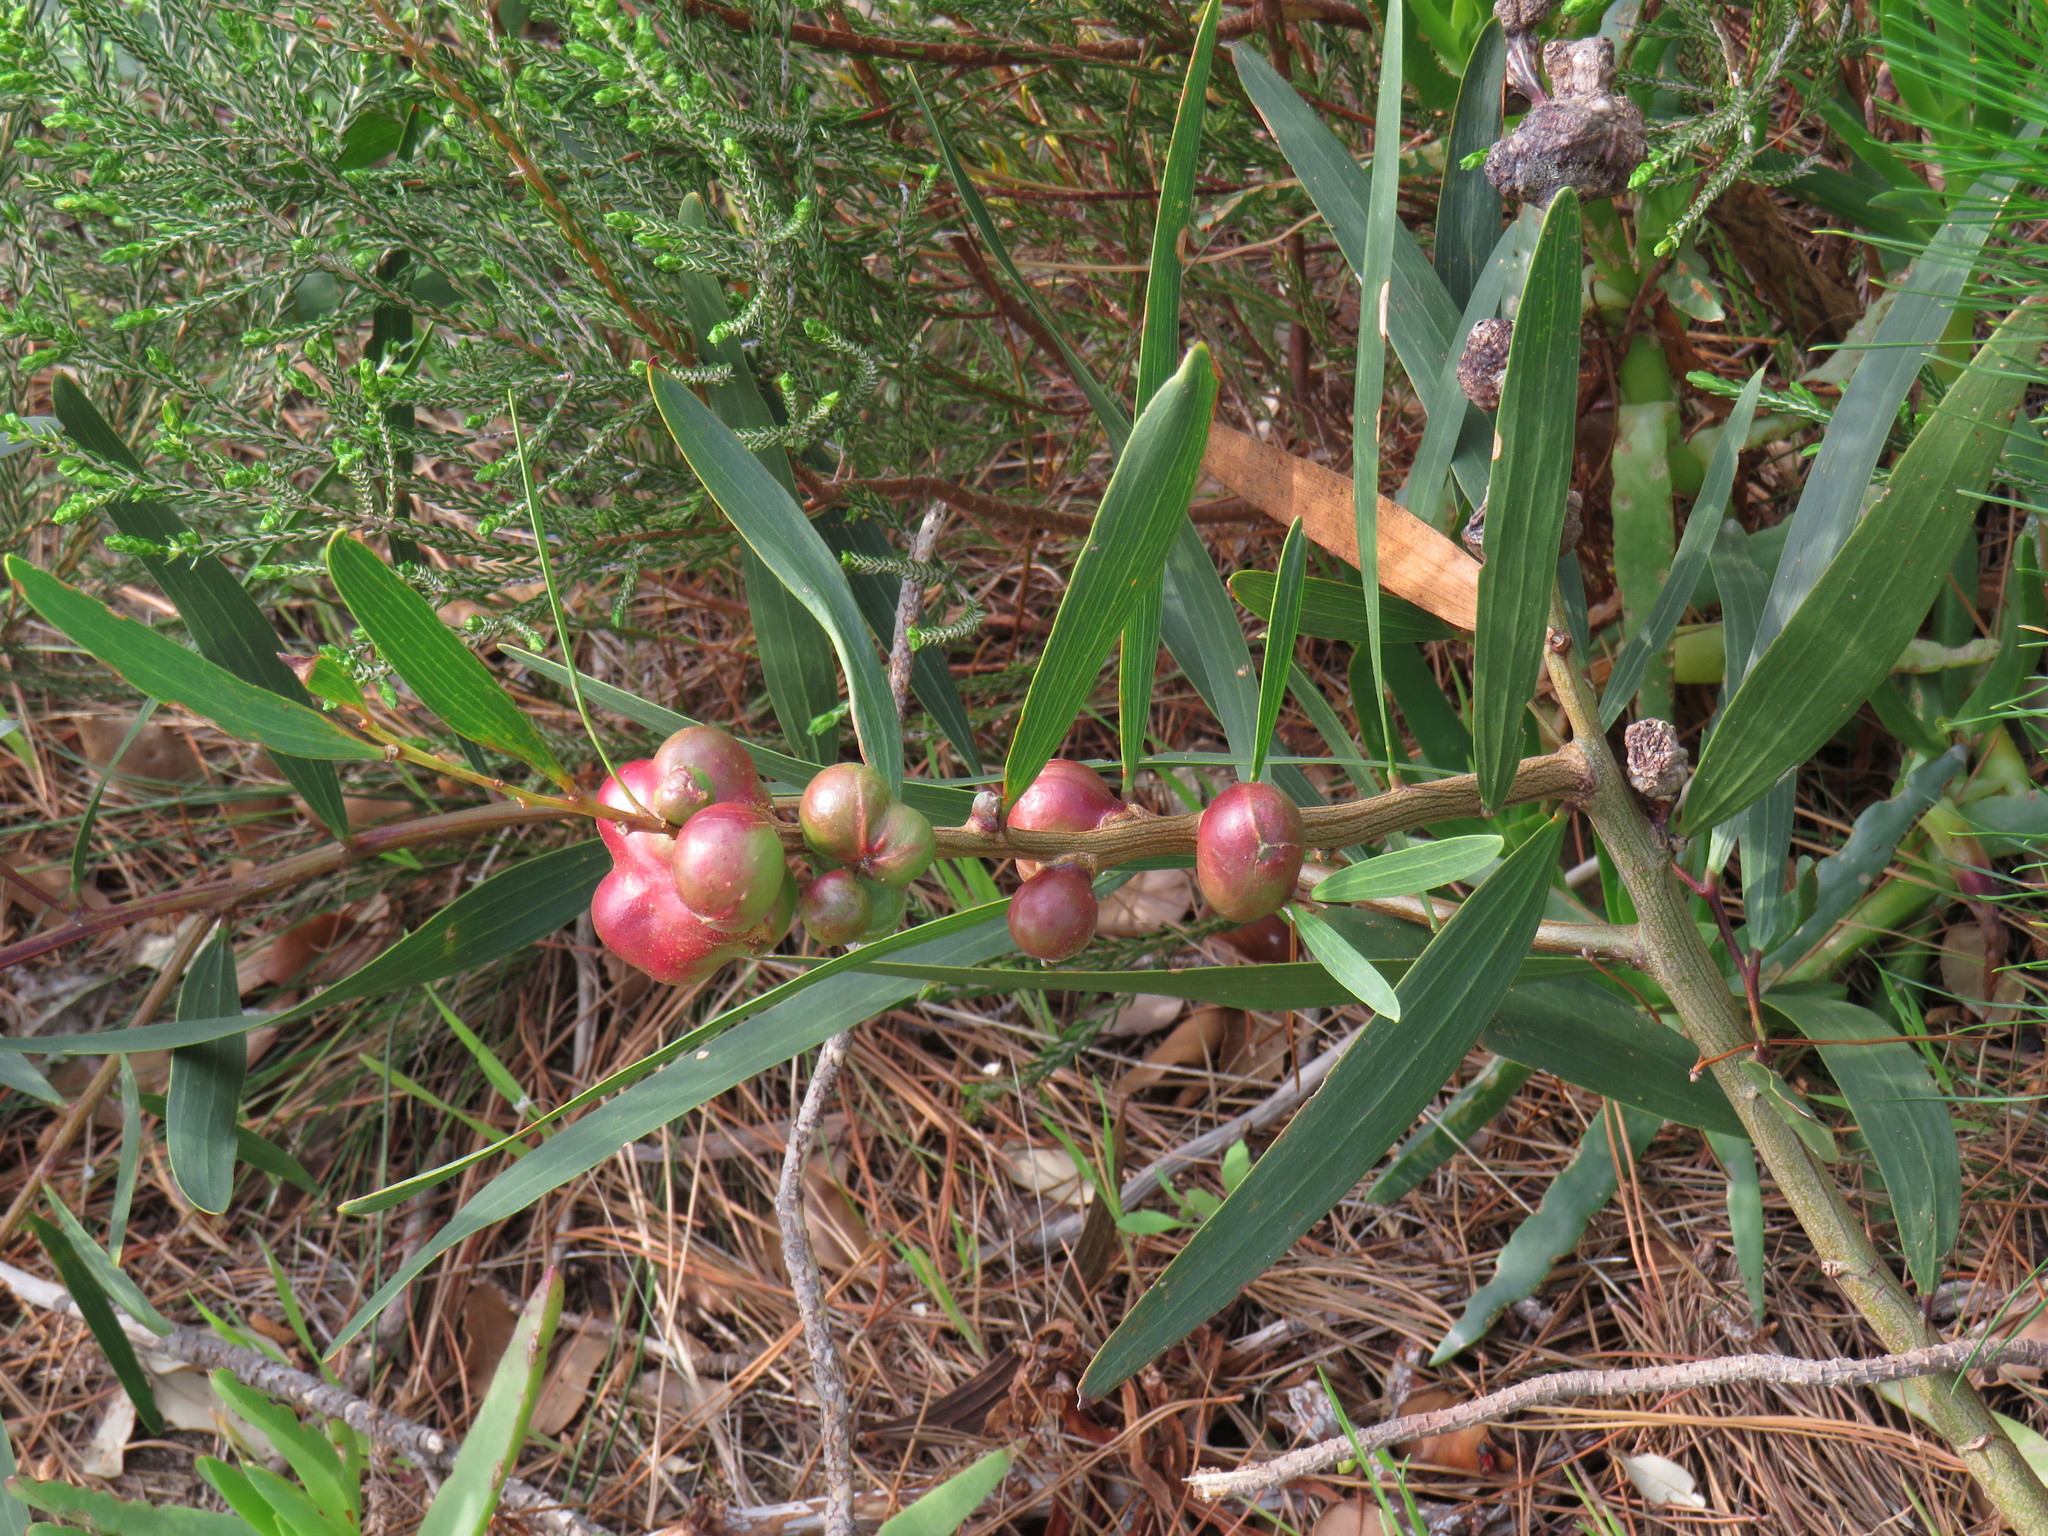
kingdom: Plantae
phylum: Tracheophyta
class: Magnoliopsida
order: Fabales
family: Fabaceae
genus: Acacia
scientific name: Acacia longifolia
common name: Sydney golden wattle
